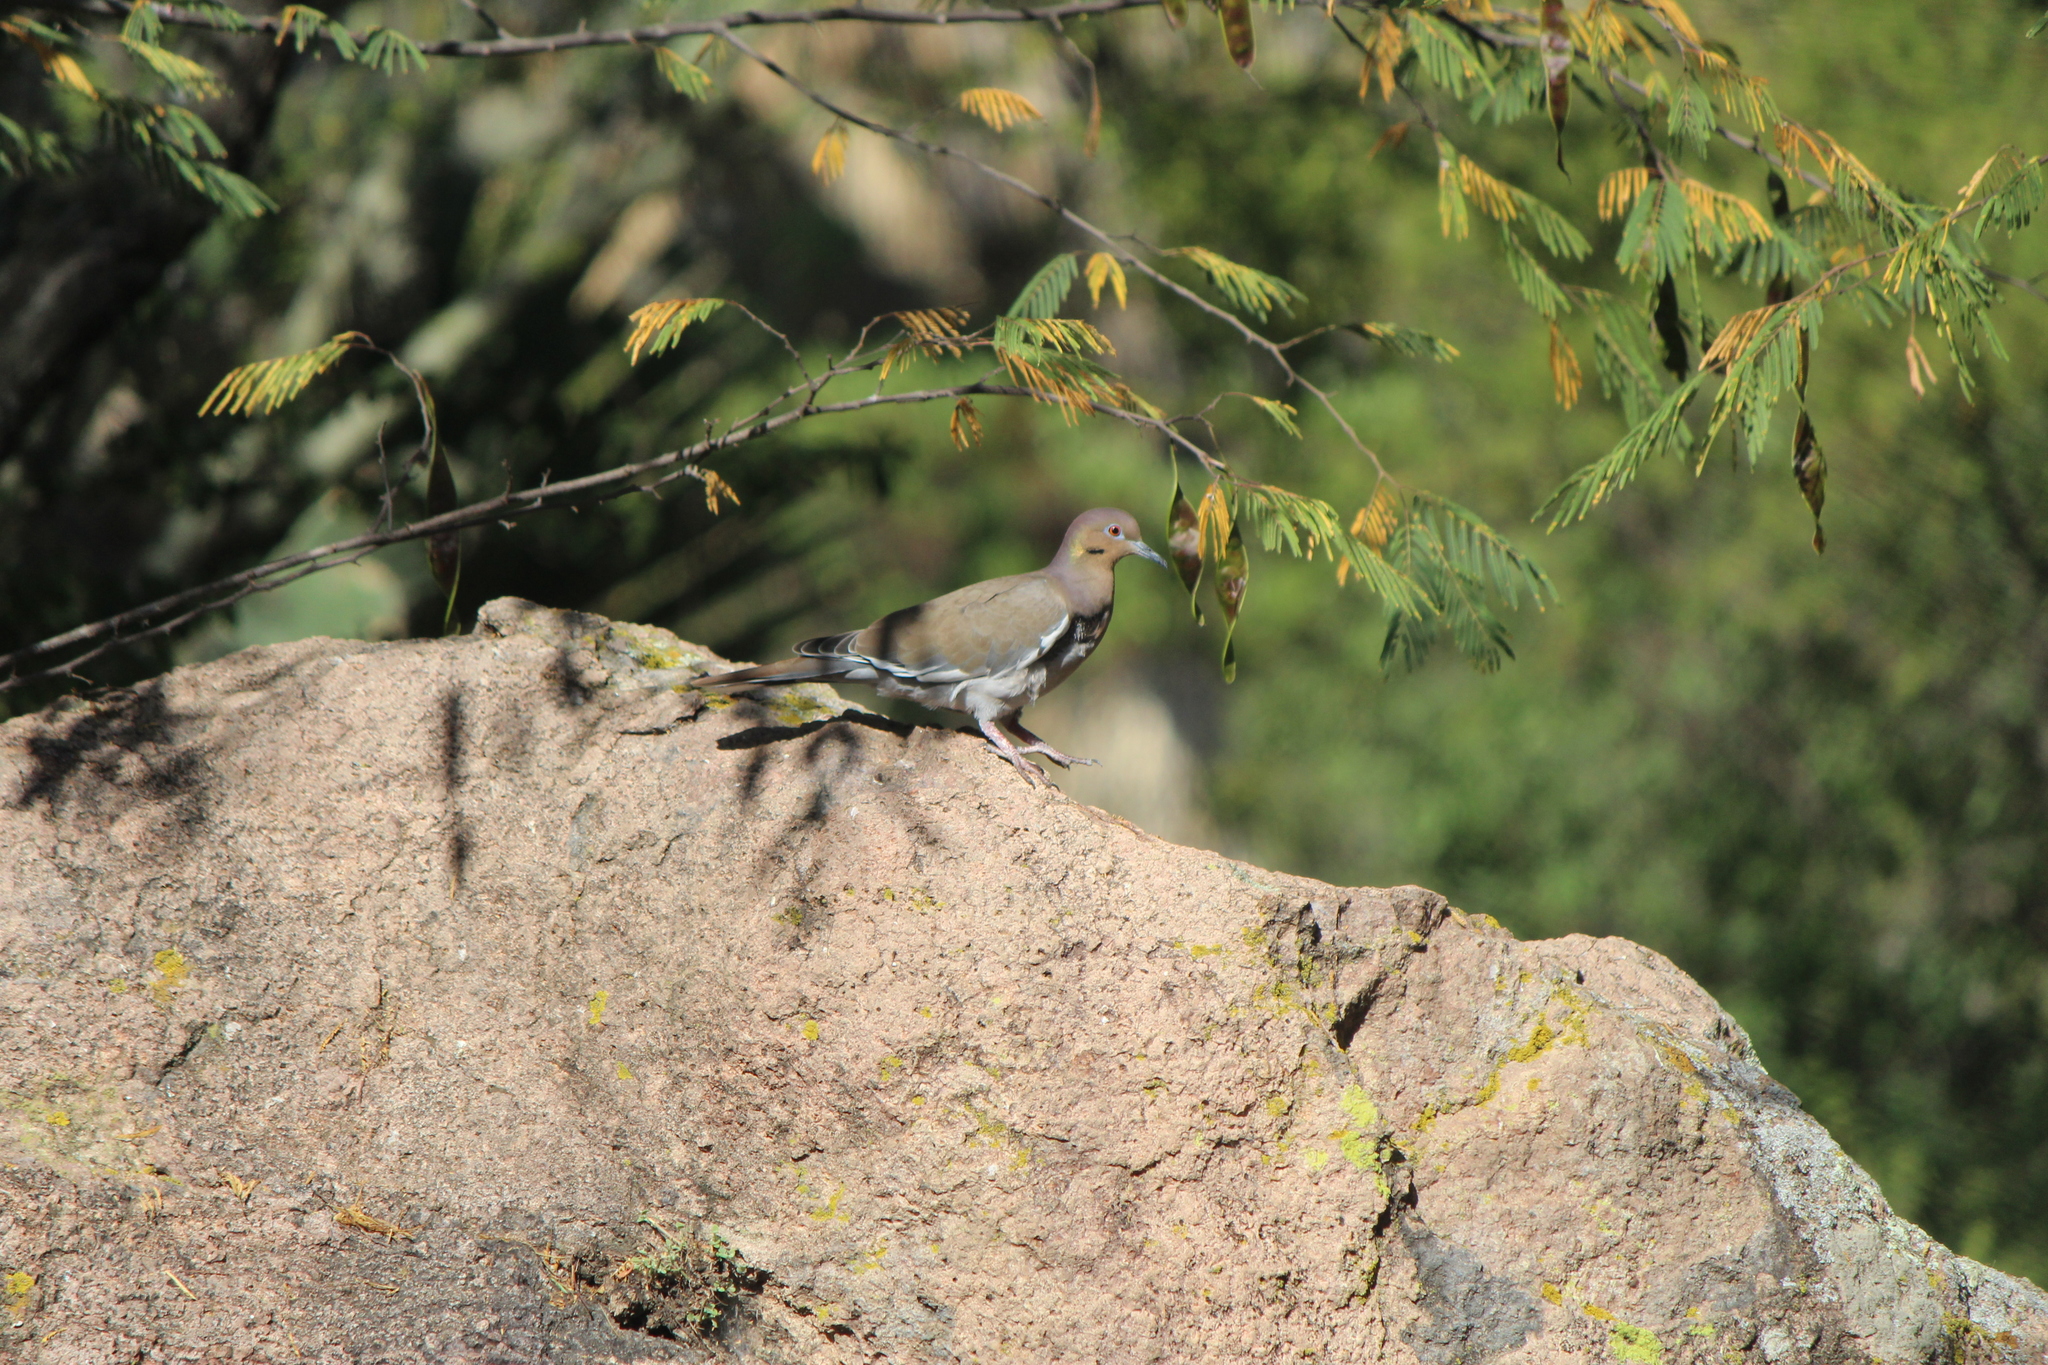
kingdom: Animalia
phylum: Chordata
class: Aves
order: Columbiformes
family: Columbidae
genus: Zenaida
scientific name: Zenaida asiatica
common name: White-winged dove
